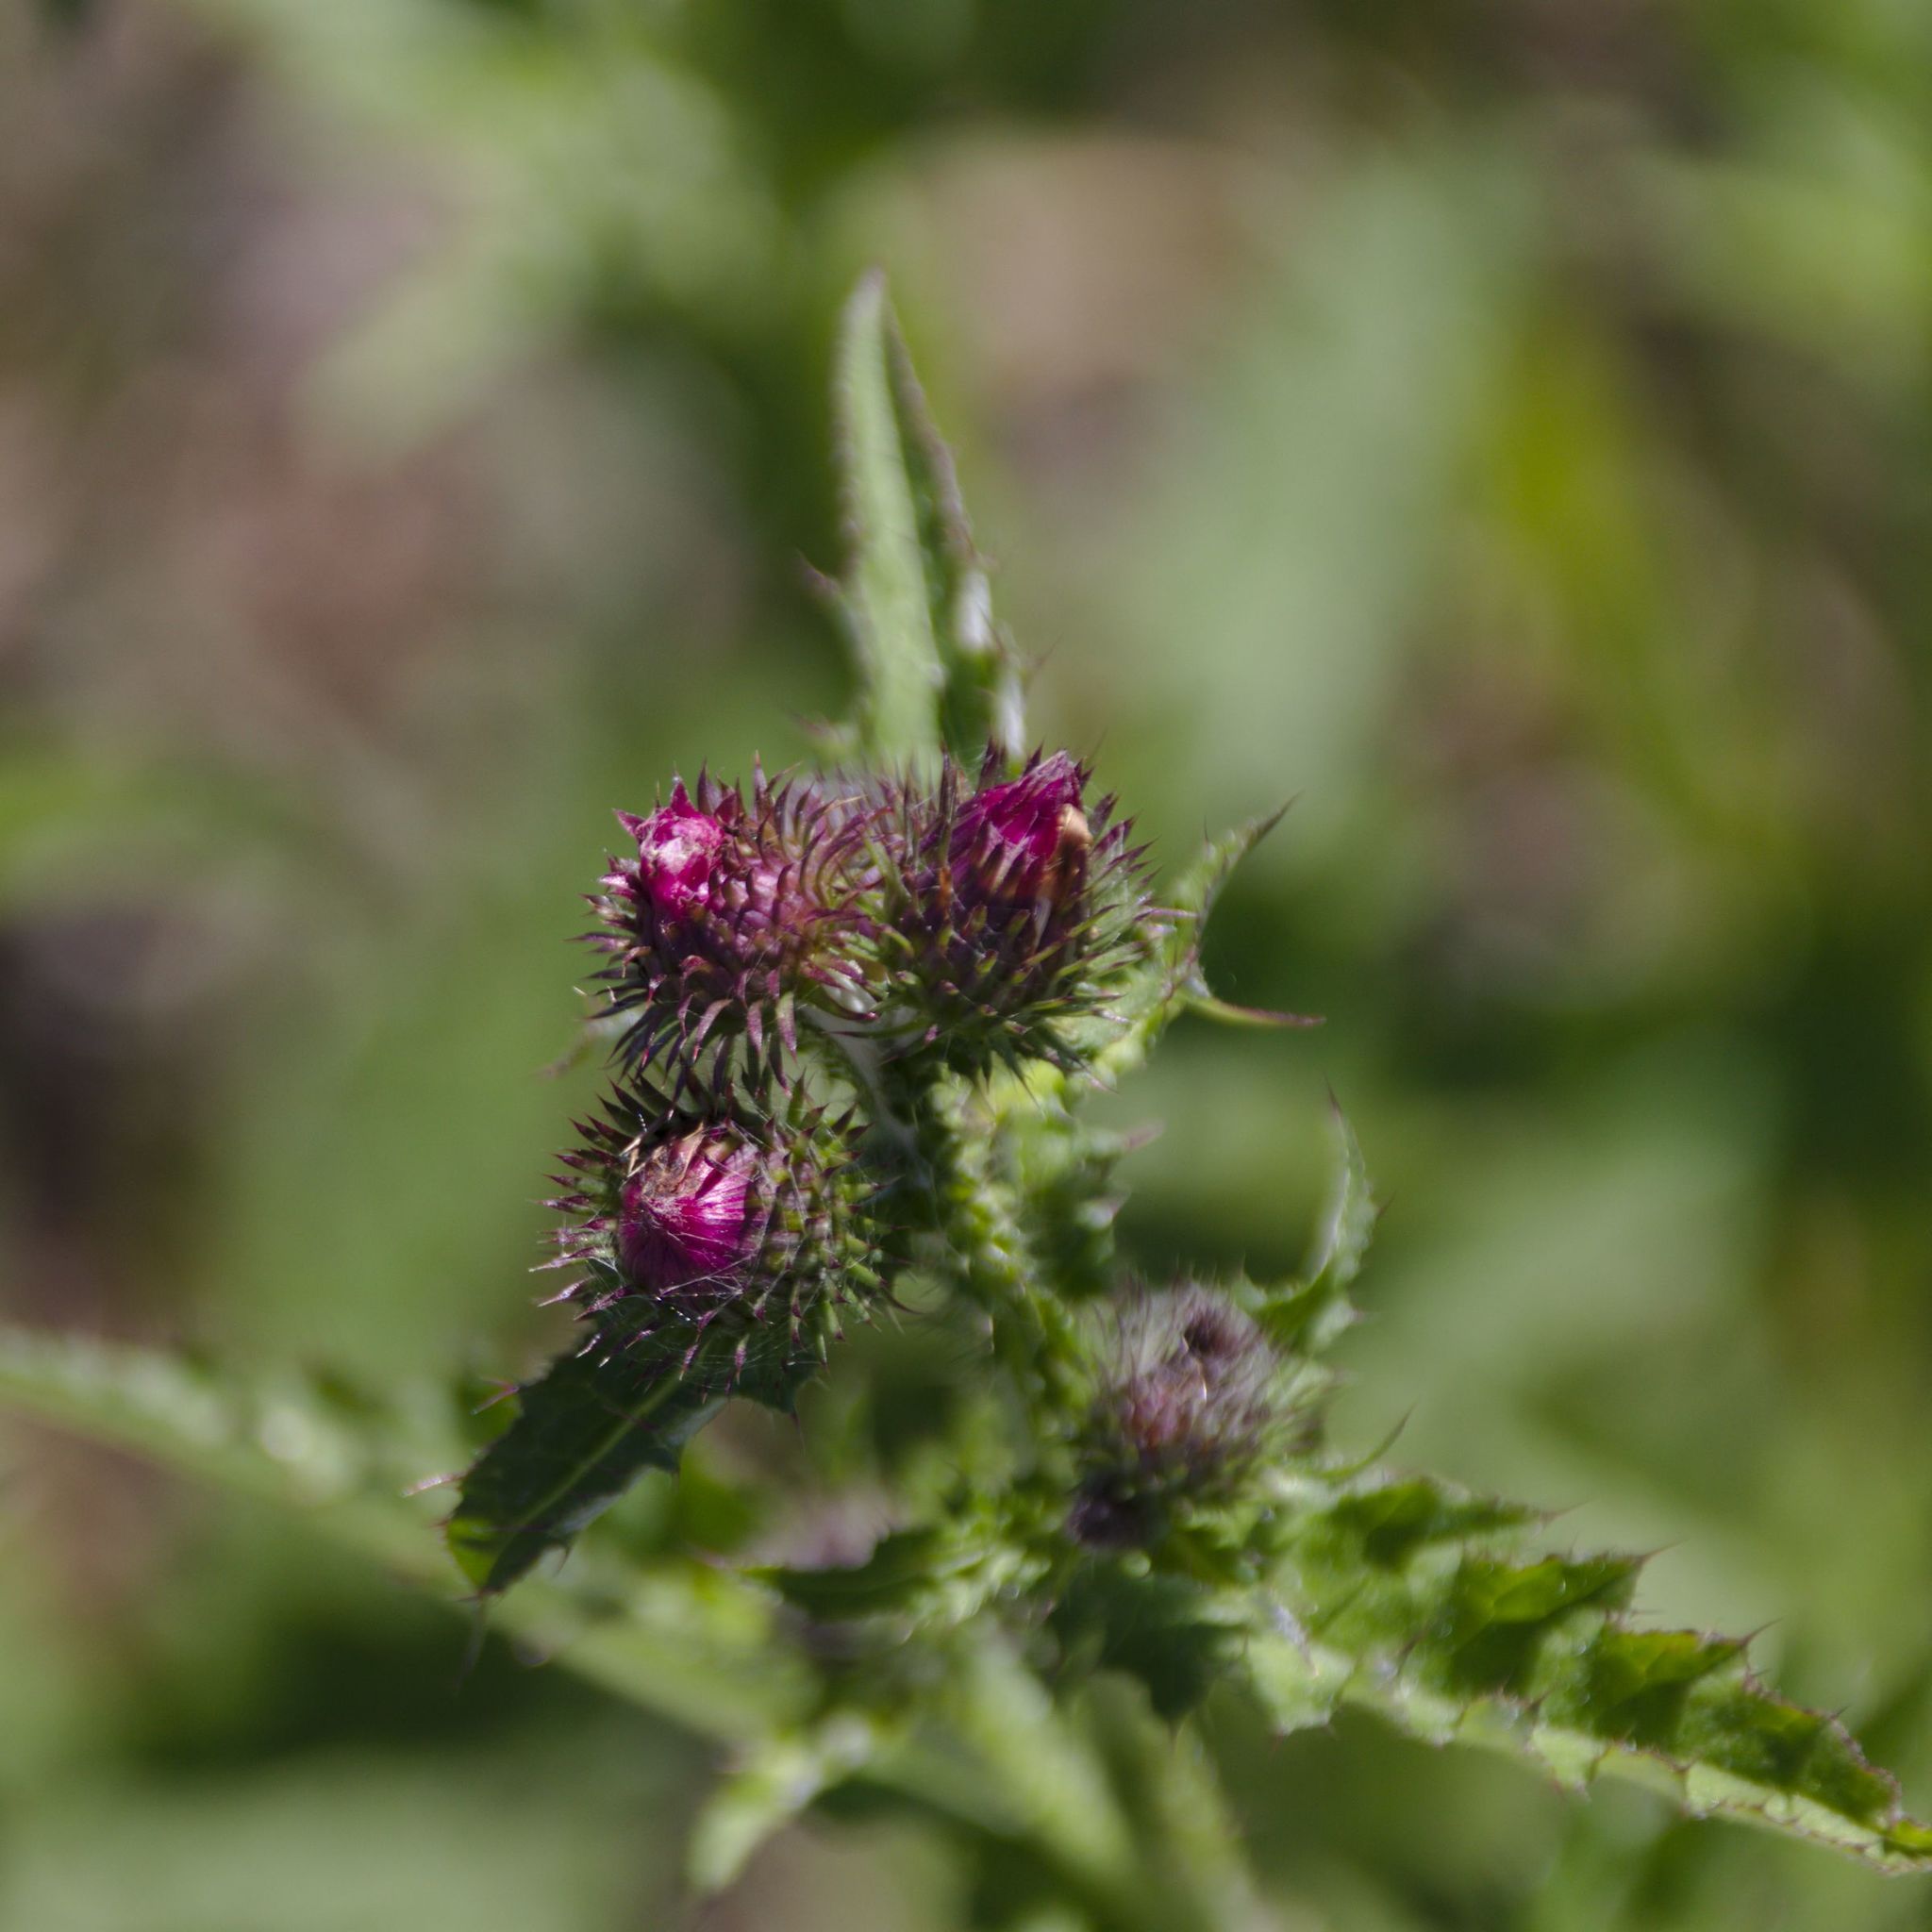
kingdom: Plantae
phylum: Tracheophyta
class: Magnoliopsida
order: Asterales
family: Asteraceae
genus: Carduus
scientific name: Carduus crispus
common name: Welted thistle
